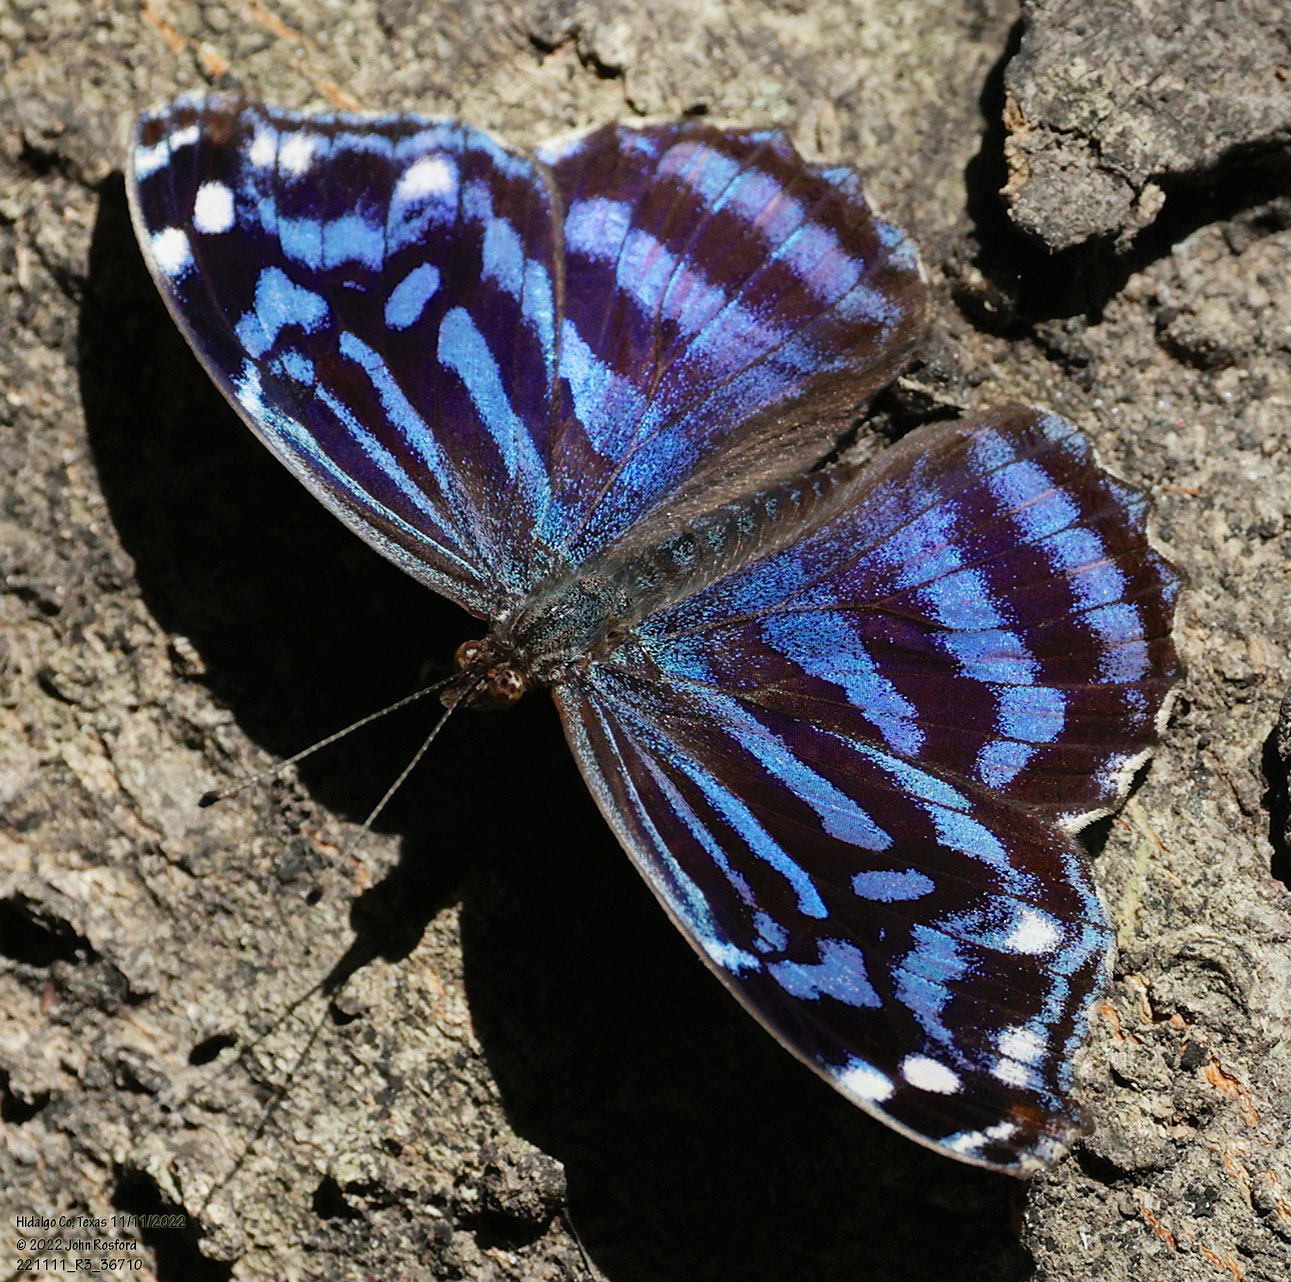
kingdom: Animalia
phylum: Arthropoda
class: Insecta
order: Lepidoptera
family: Nymphalidae
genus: Myscelia
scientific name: Myscelia ethusa
